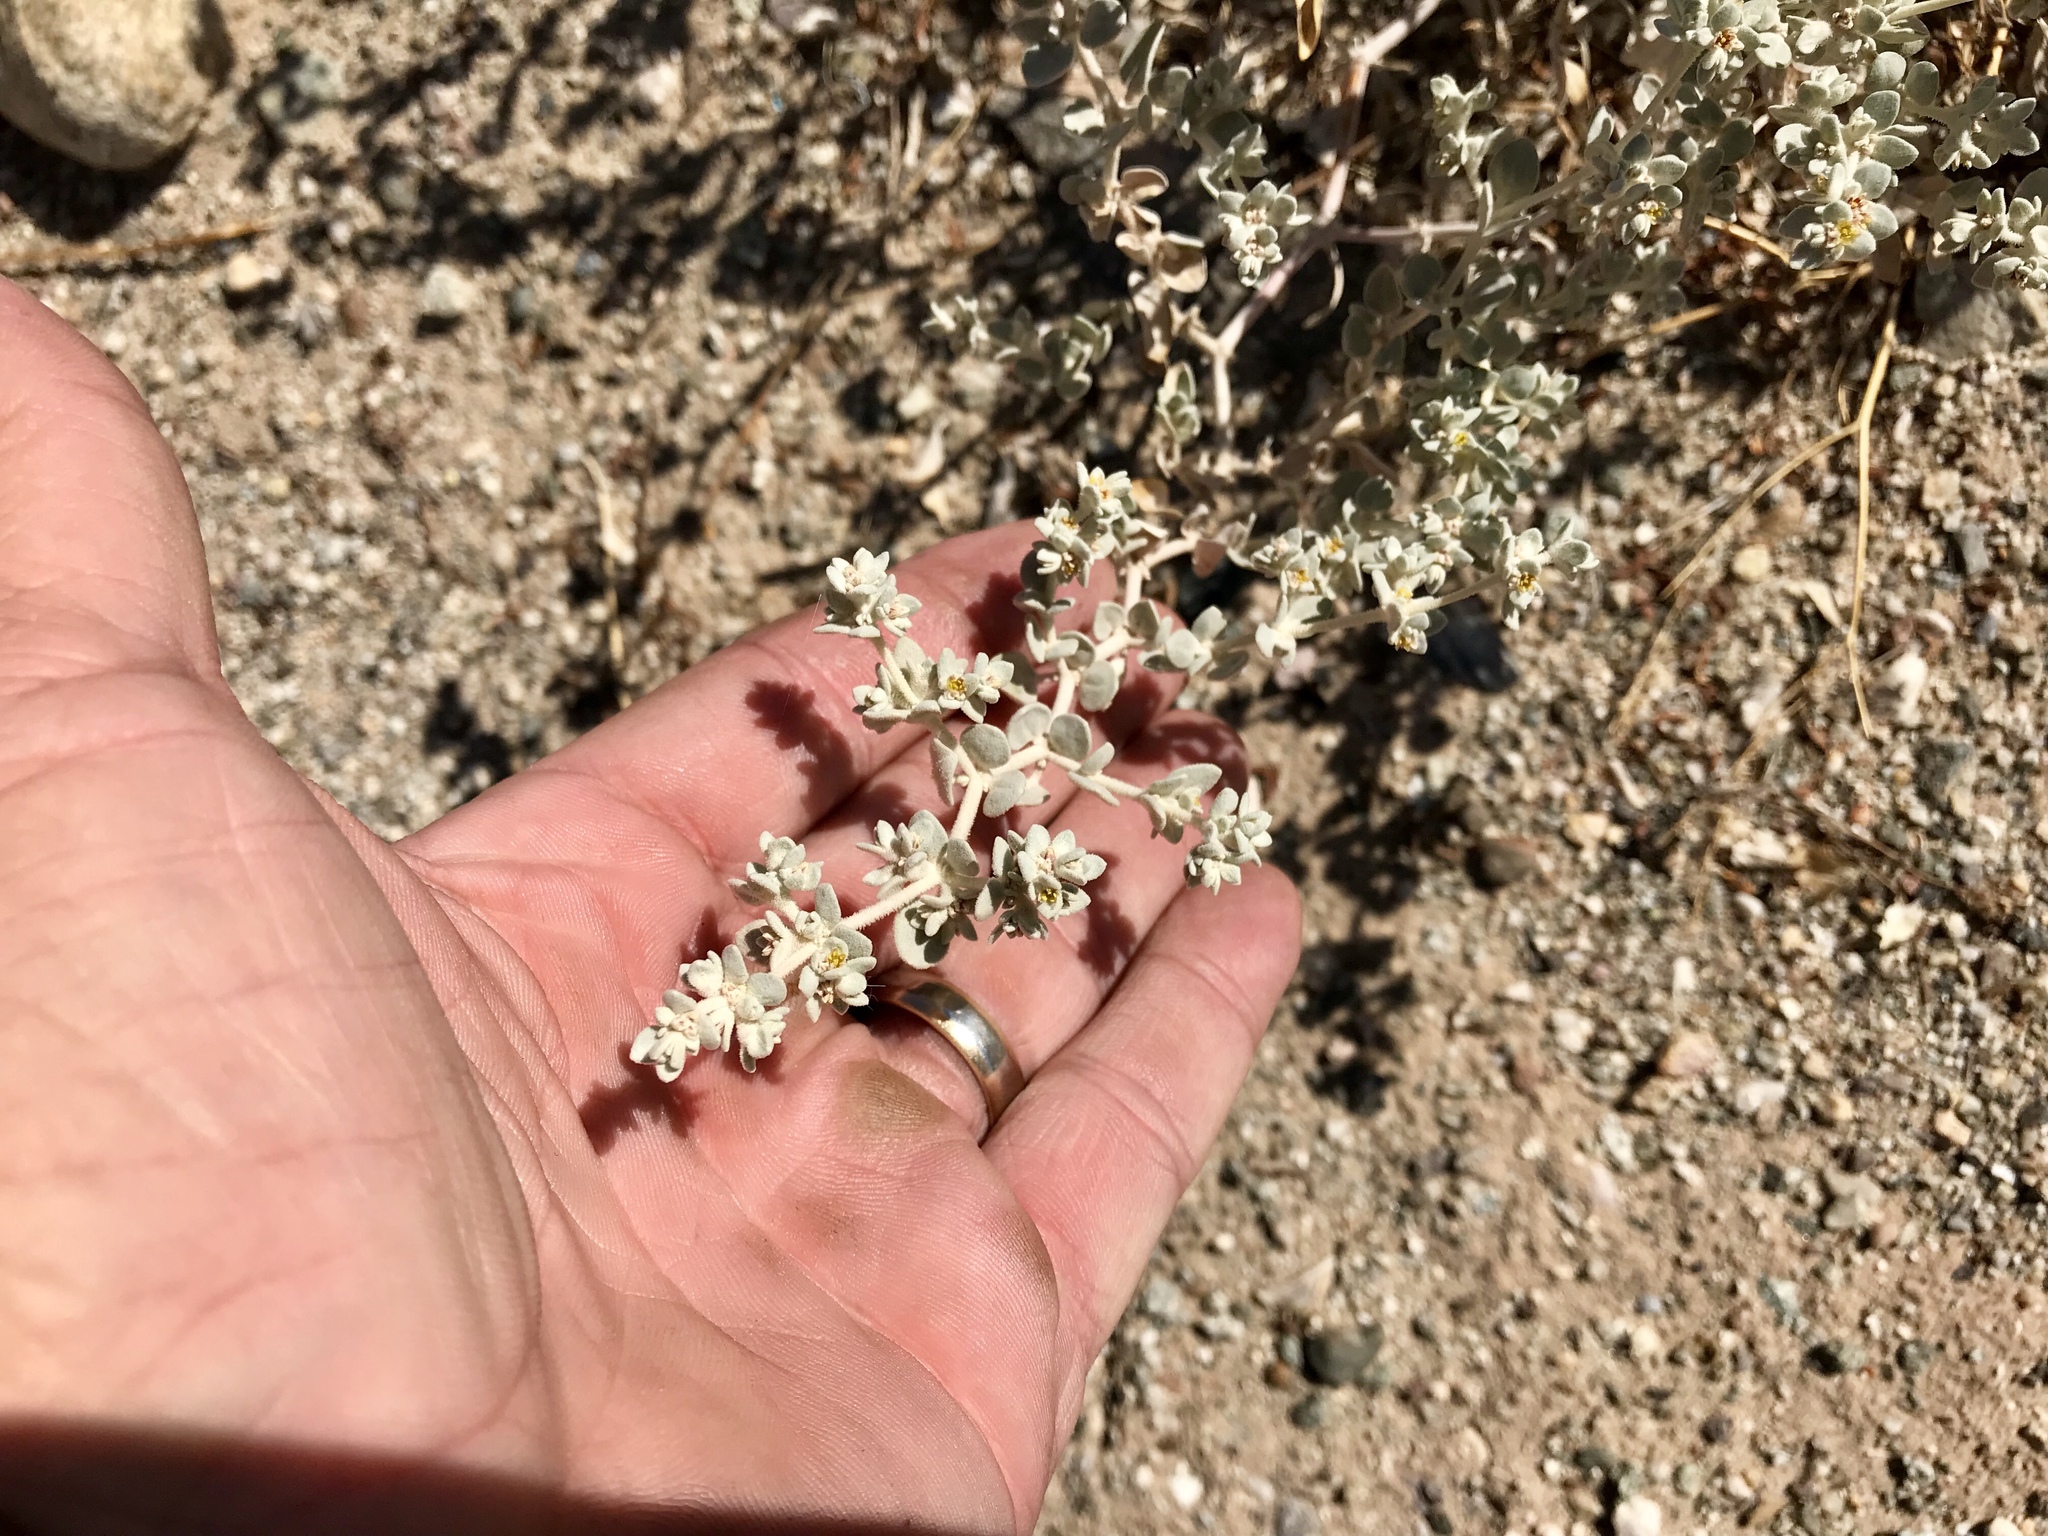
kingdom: Plantae
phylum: Tracheophyta
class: Magnoliopsida
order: Brassicales
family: Brassicaceae
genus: Dithyrea
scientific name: Dithyrea californica
